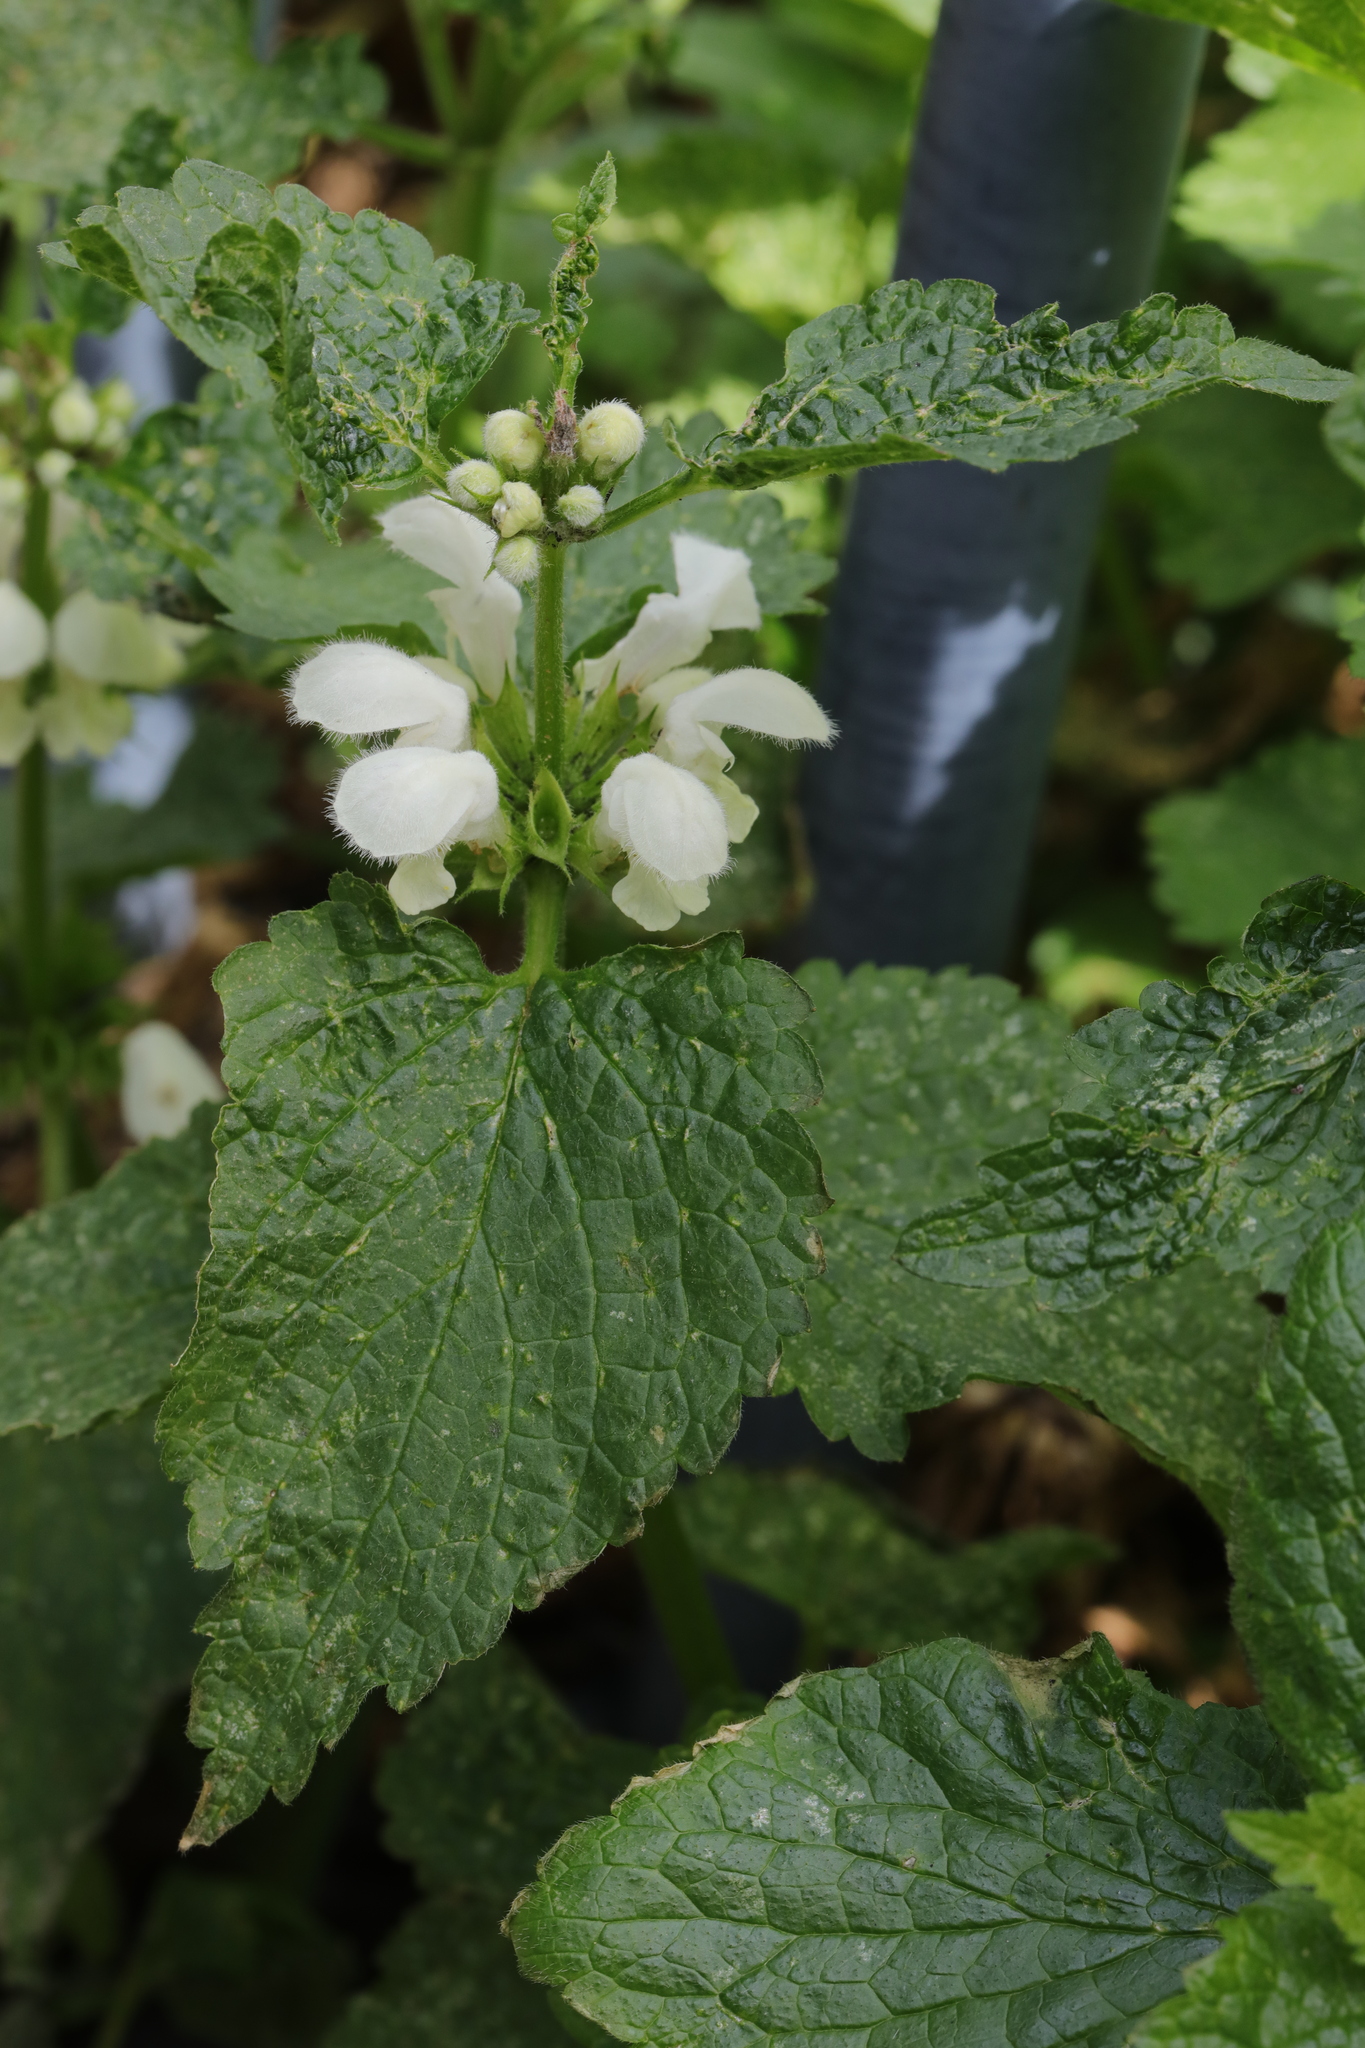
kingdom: Plantae
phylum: Tracheophyta
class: Magnoliopsida
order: Lamiales
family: Lamiaceae
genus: Lamium
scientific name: Lamium album
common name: White dead-nettle
